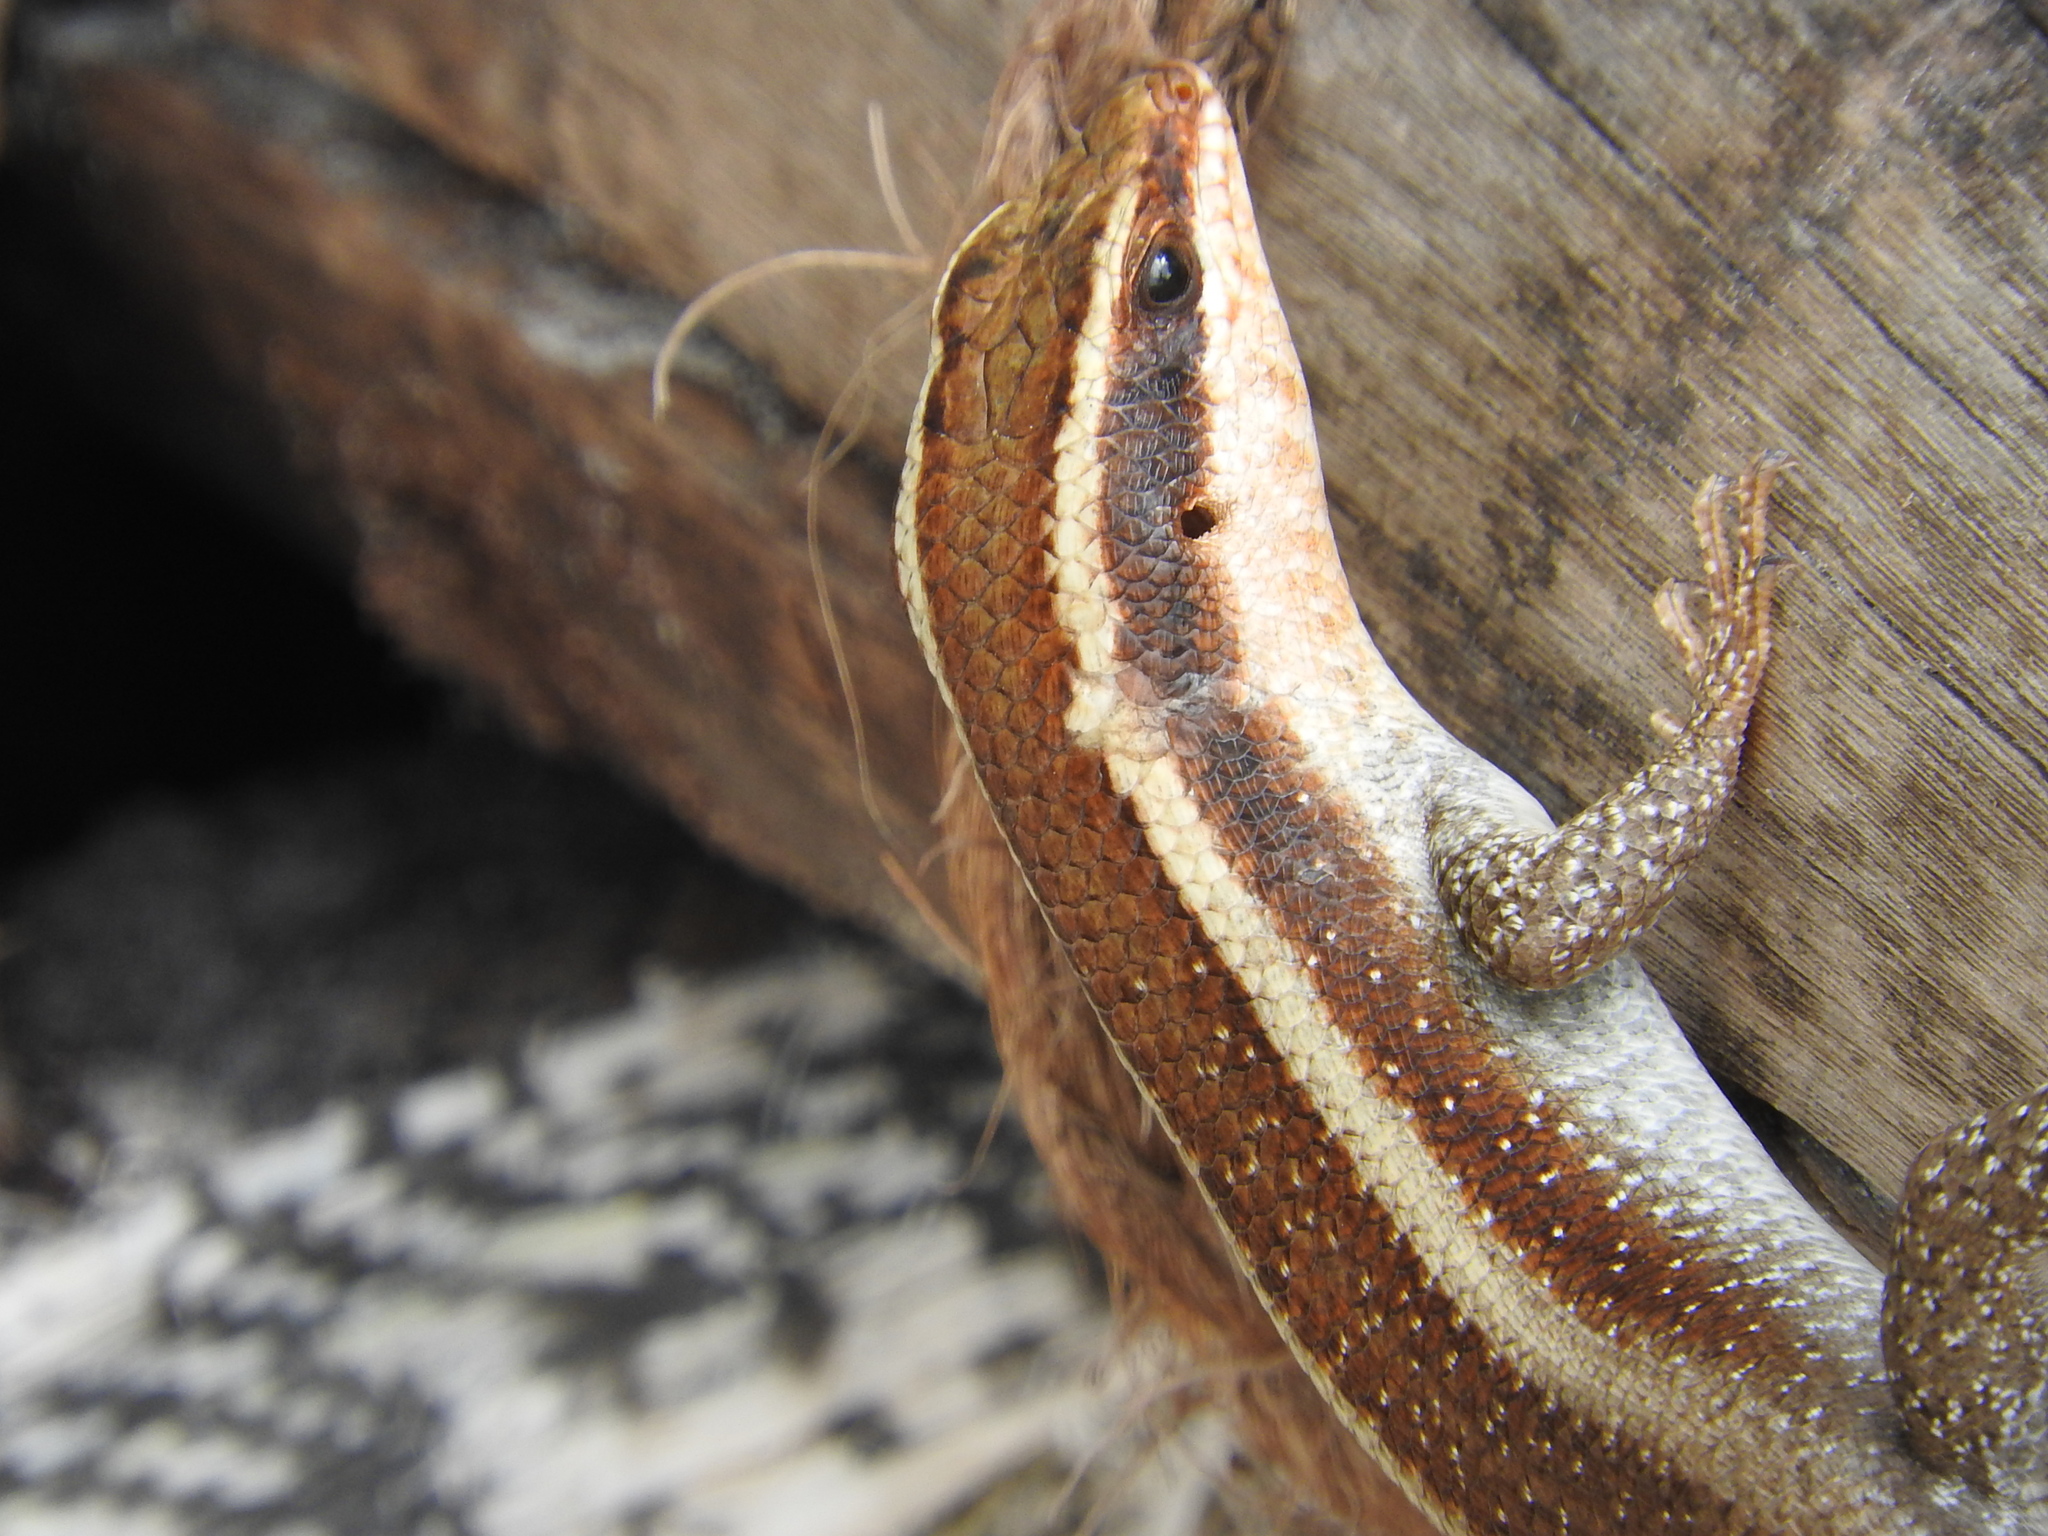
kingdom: Animalia
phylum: Chordata
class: Squamata
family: Scincidae
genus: Trachylepis
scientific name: Trachylepis striata
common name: African striped mabuya
